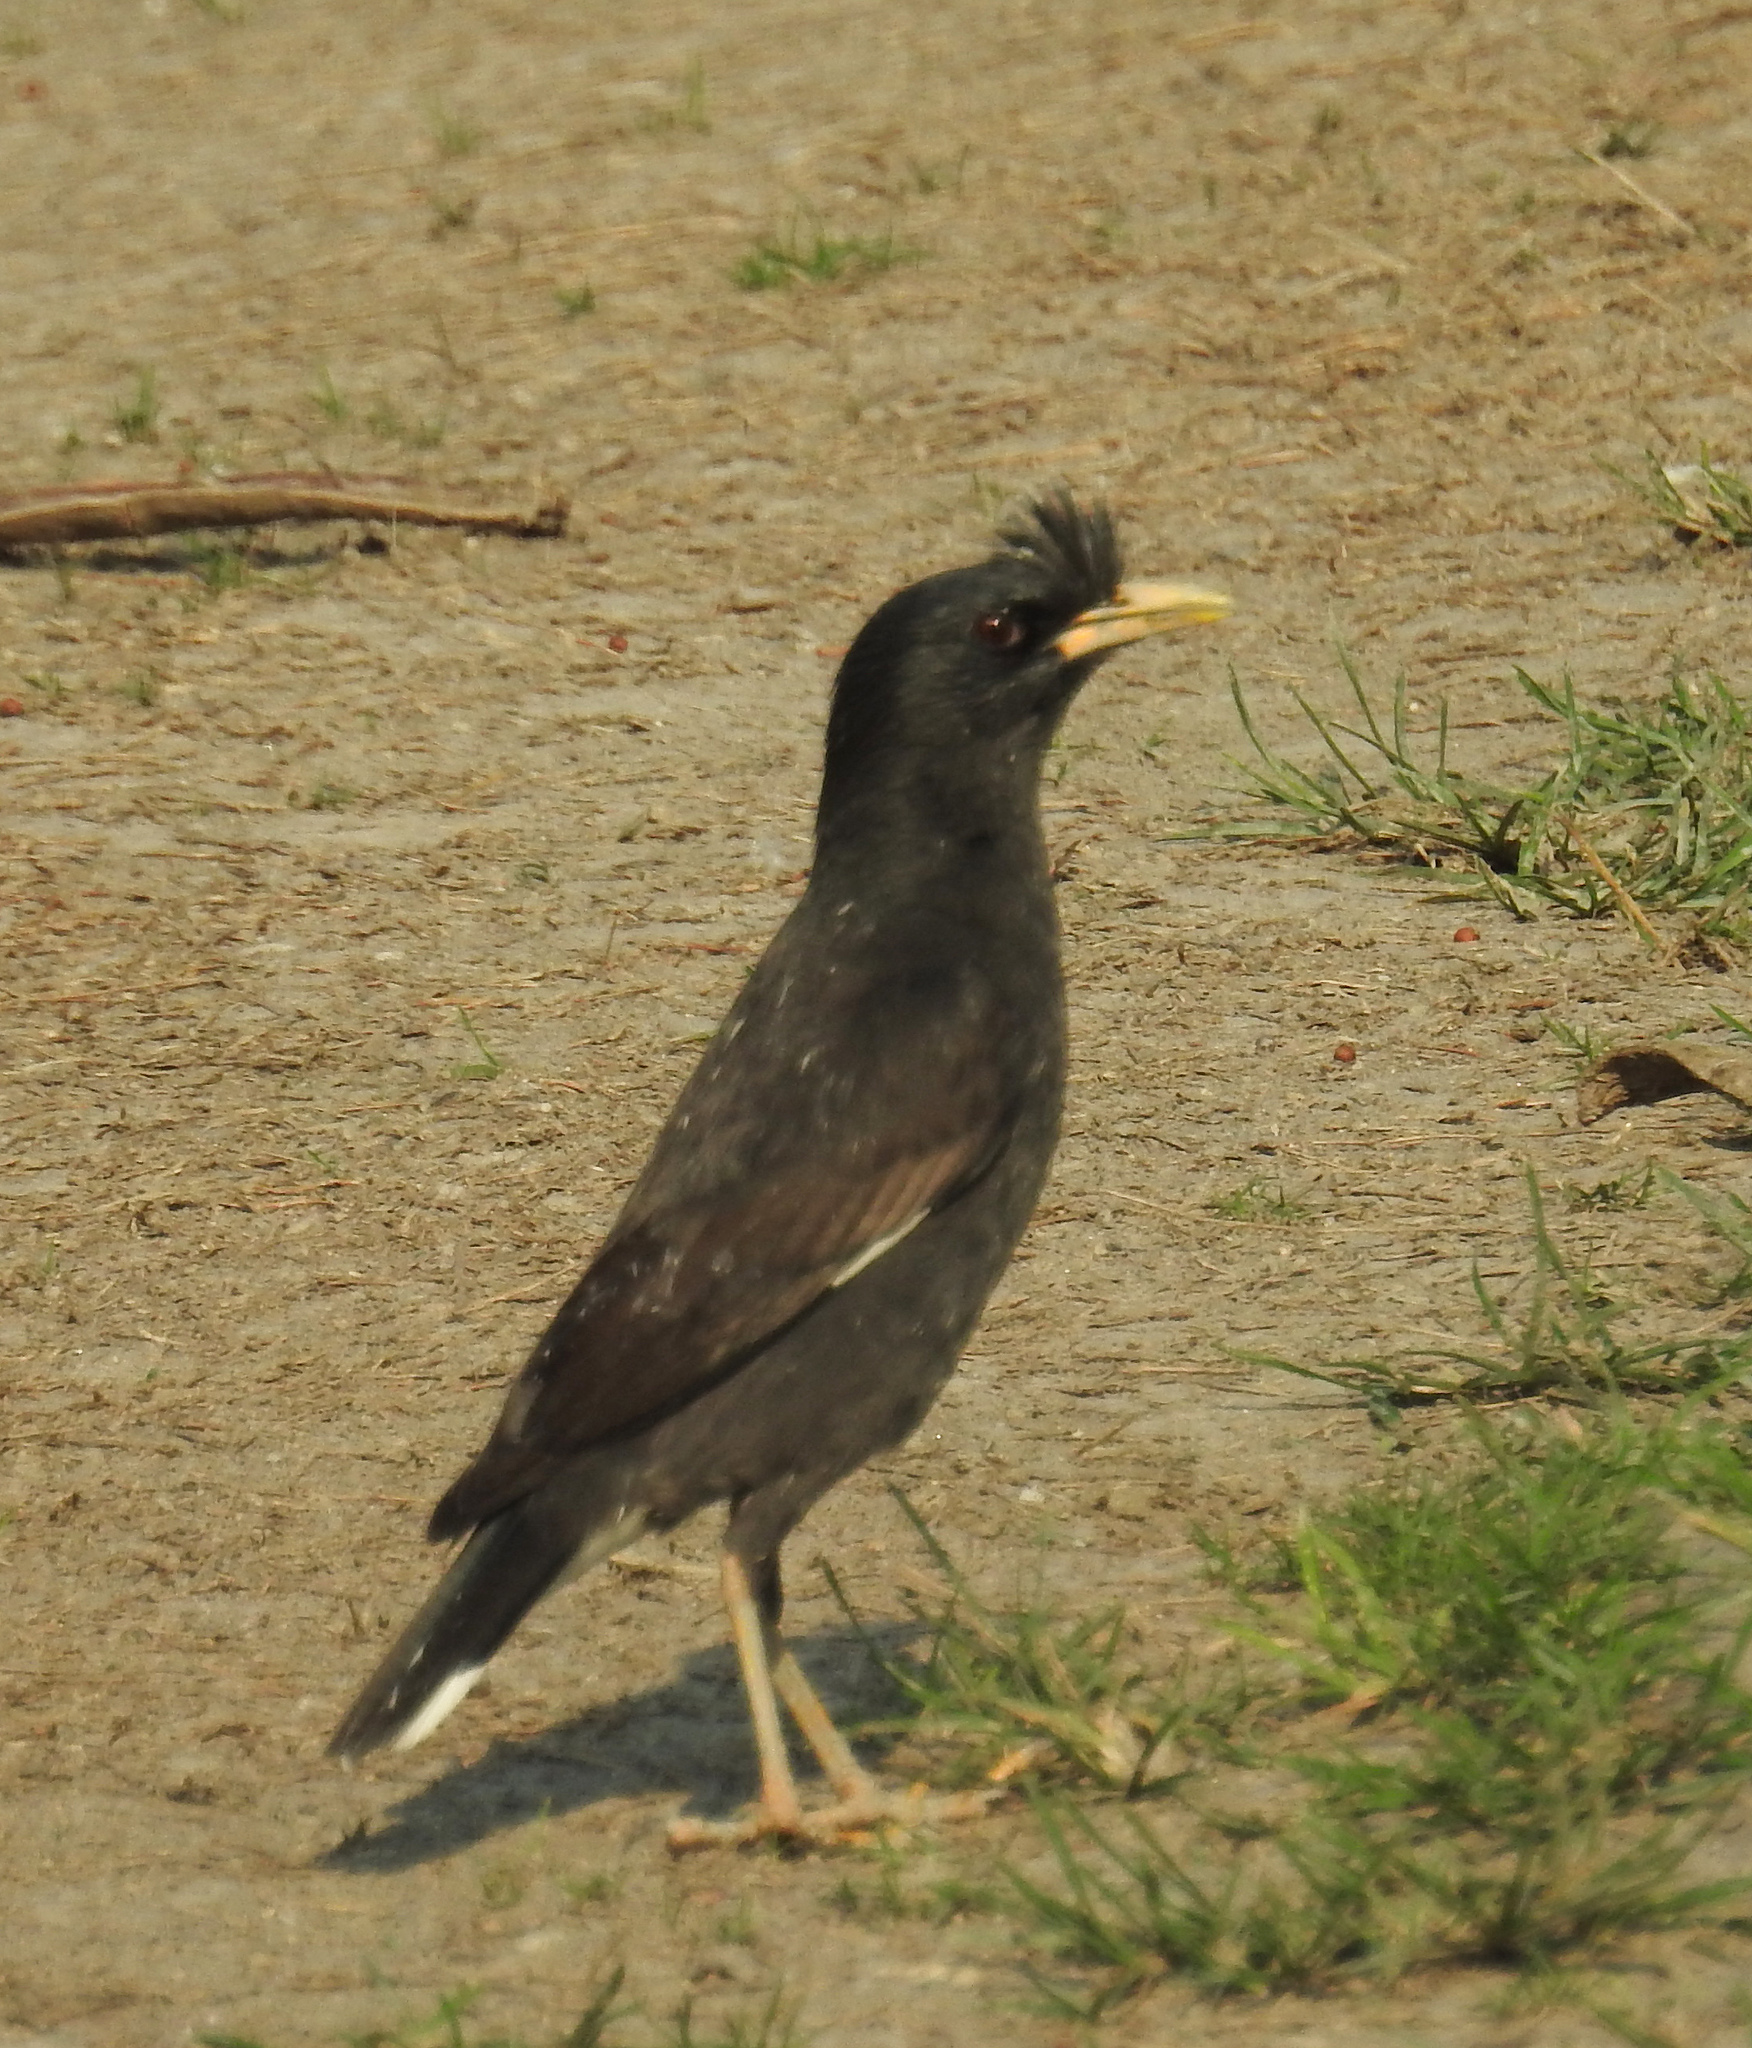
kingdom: Animalia
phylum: Chordata
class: Aves
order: Passeriformes
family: Sturnidae
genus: Acridotheres
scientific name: Acridotheres grandis
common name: Great myna
